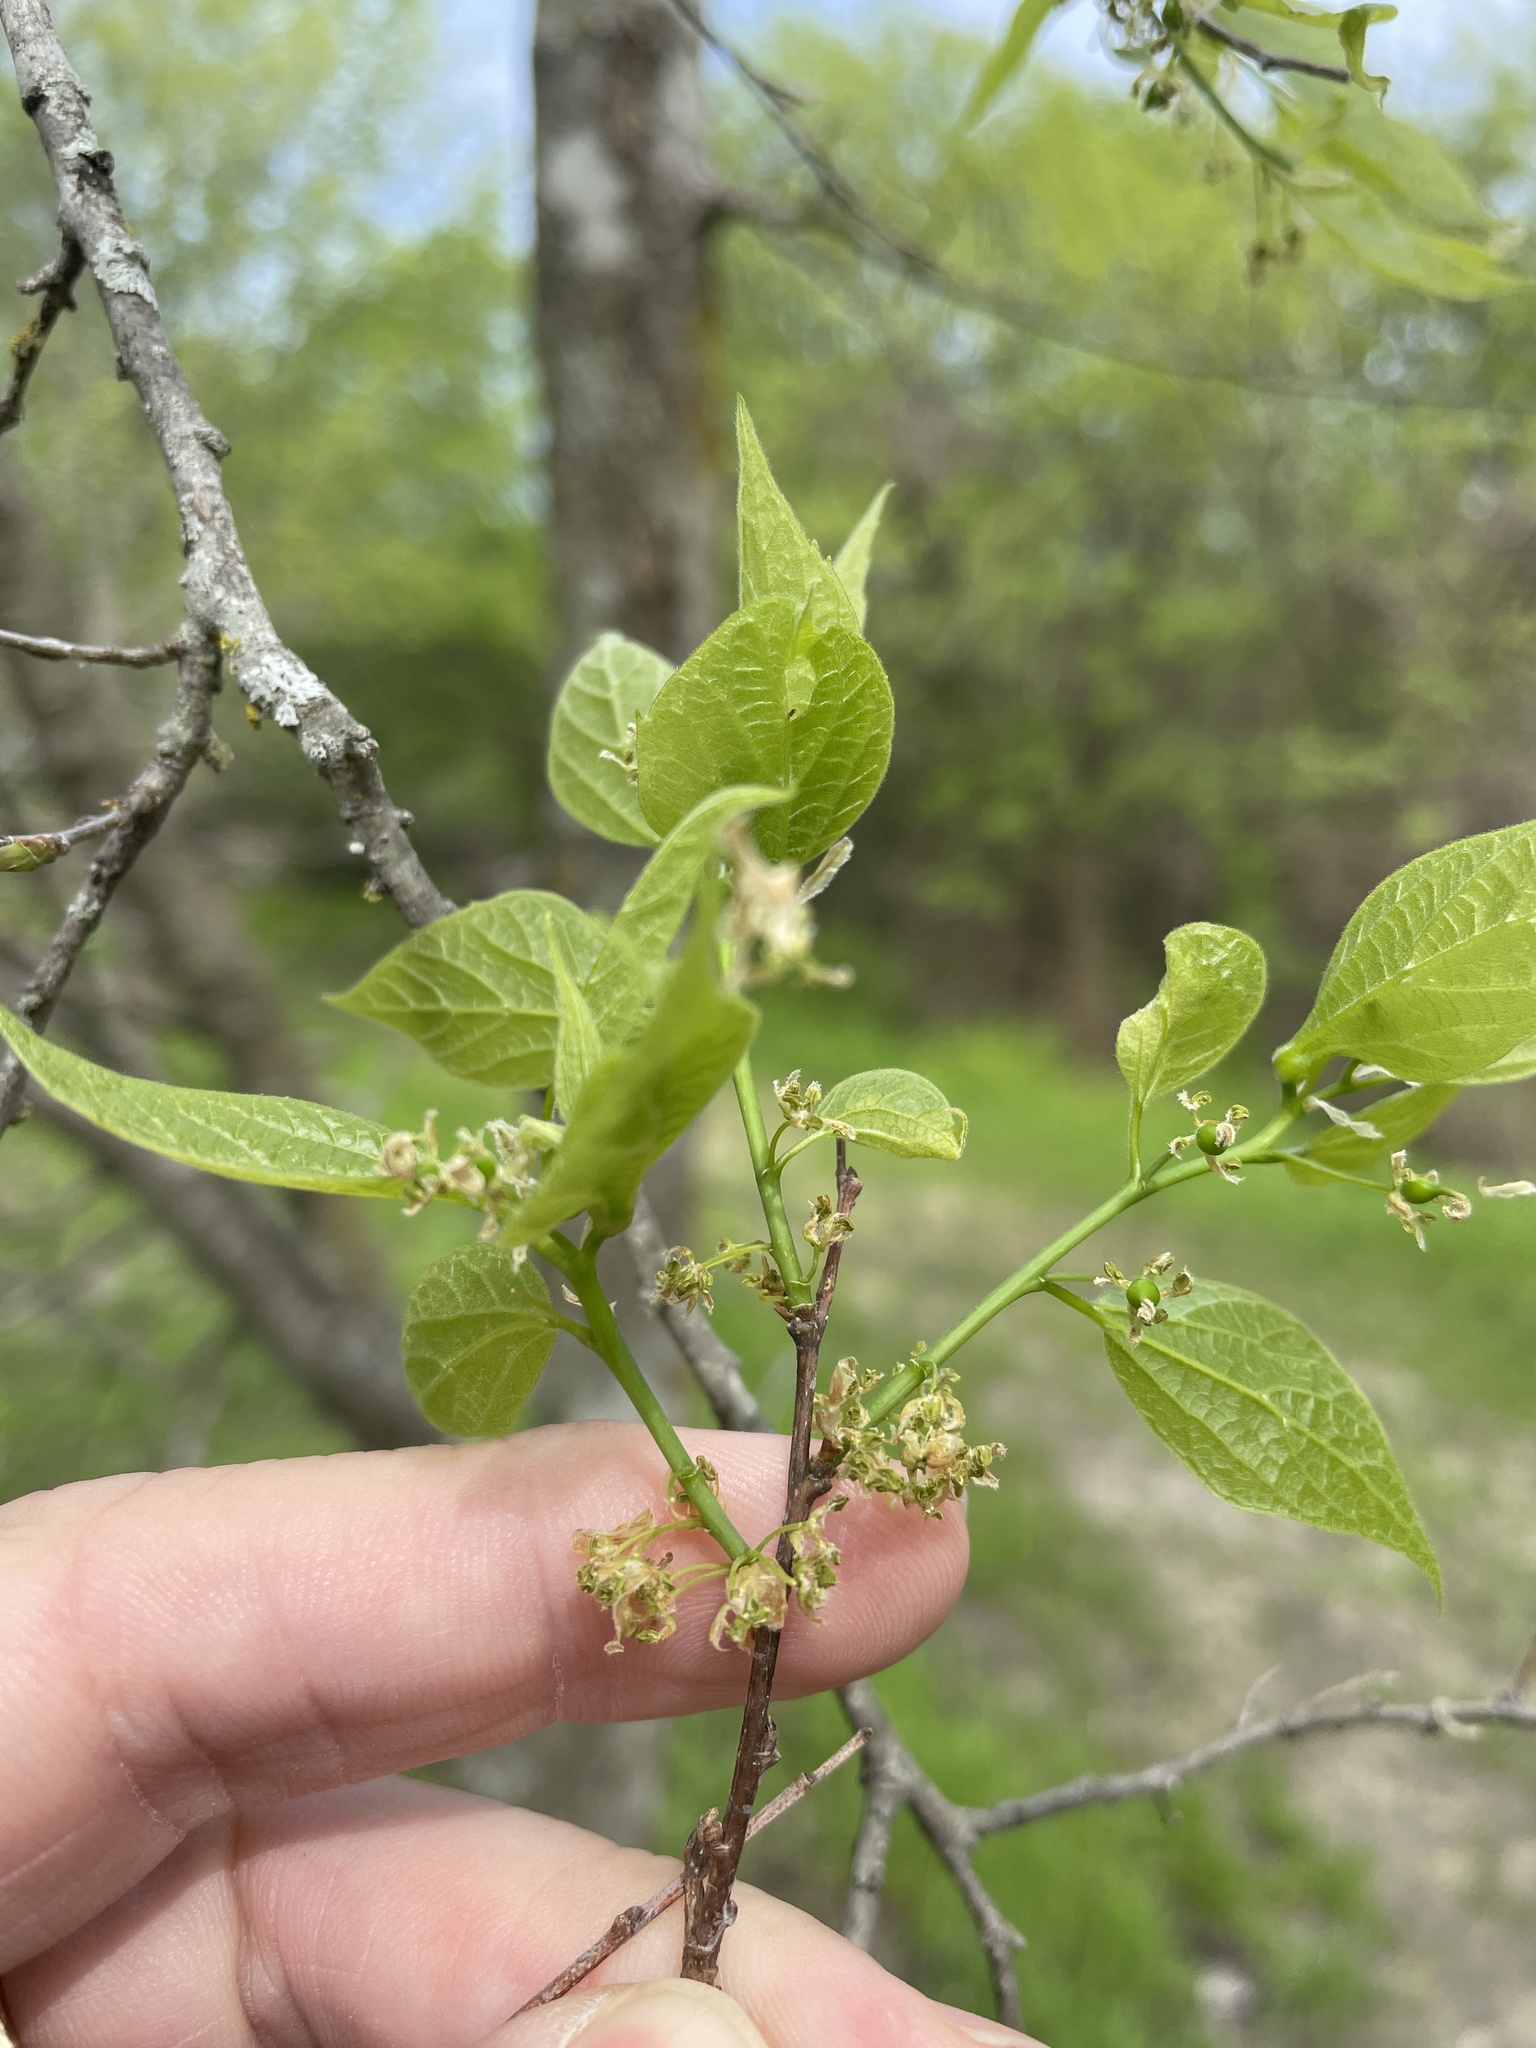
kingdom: Plantae
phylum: Tracheophyta
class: Magnoliopsida
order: Rosales
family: Cannabaceae
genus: Celtis
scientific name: Celtis laevigata
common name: Sugarberry
